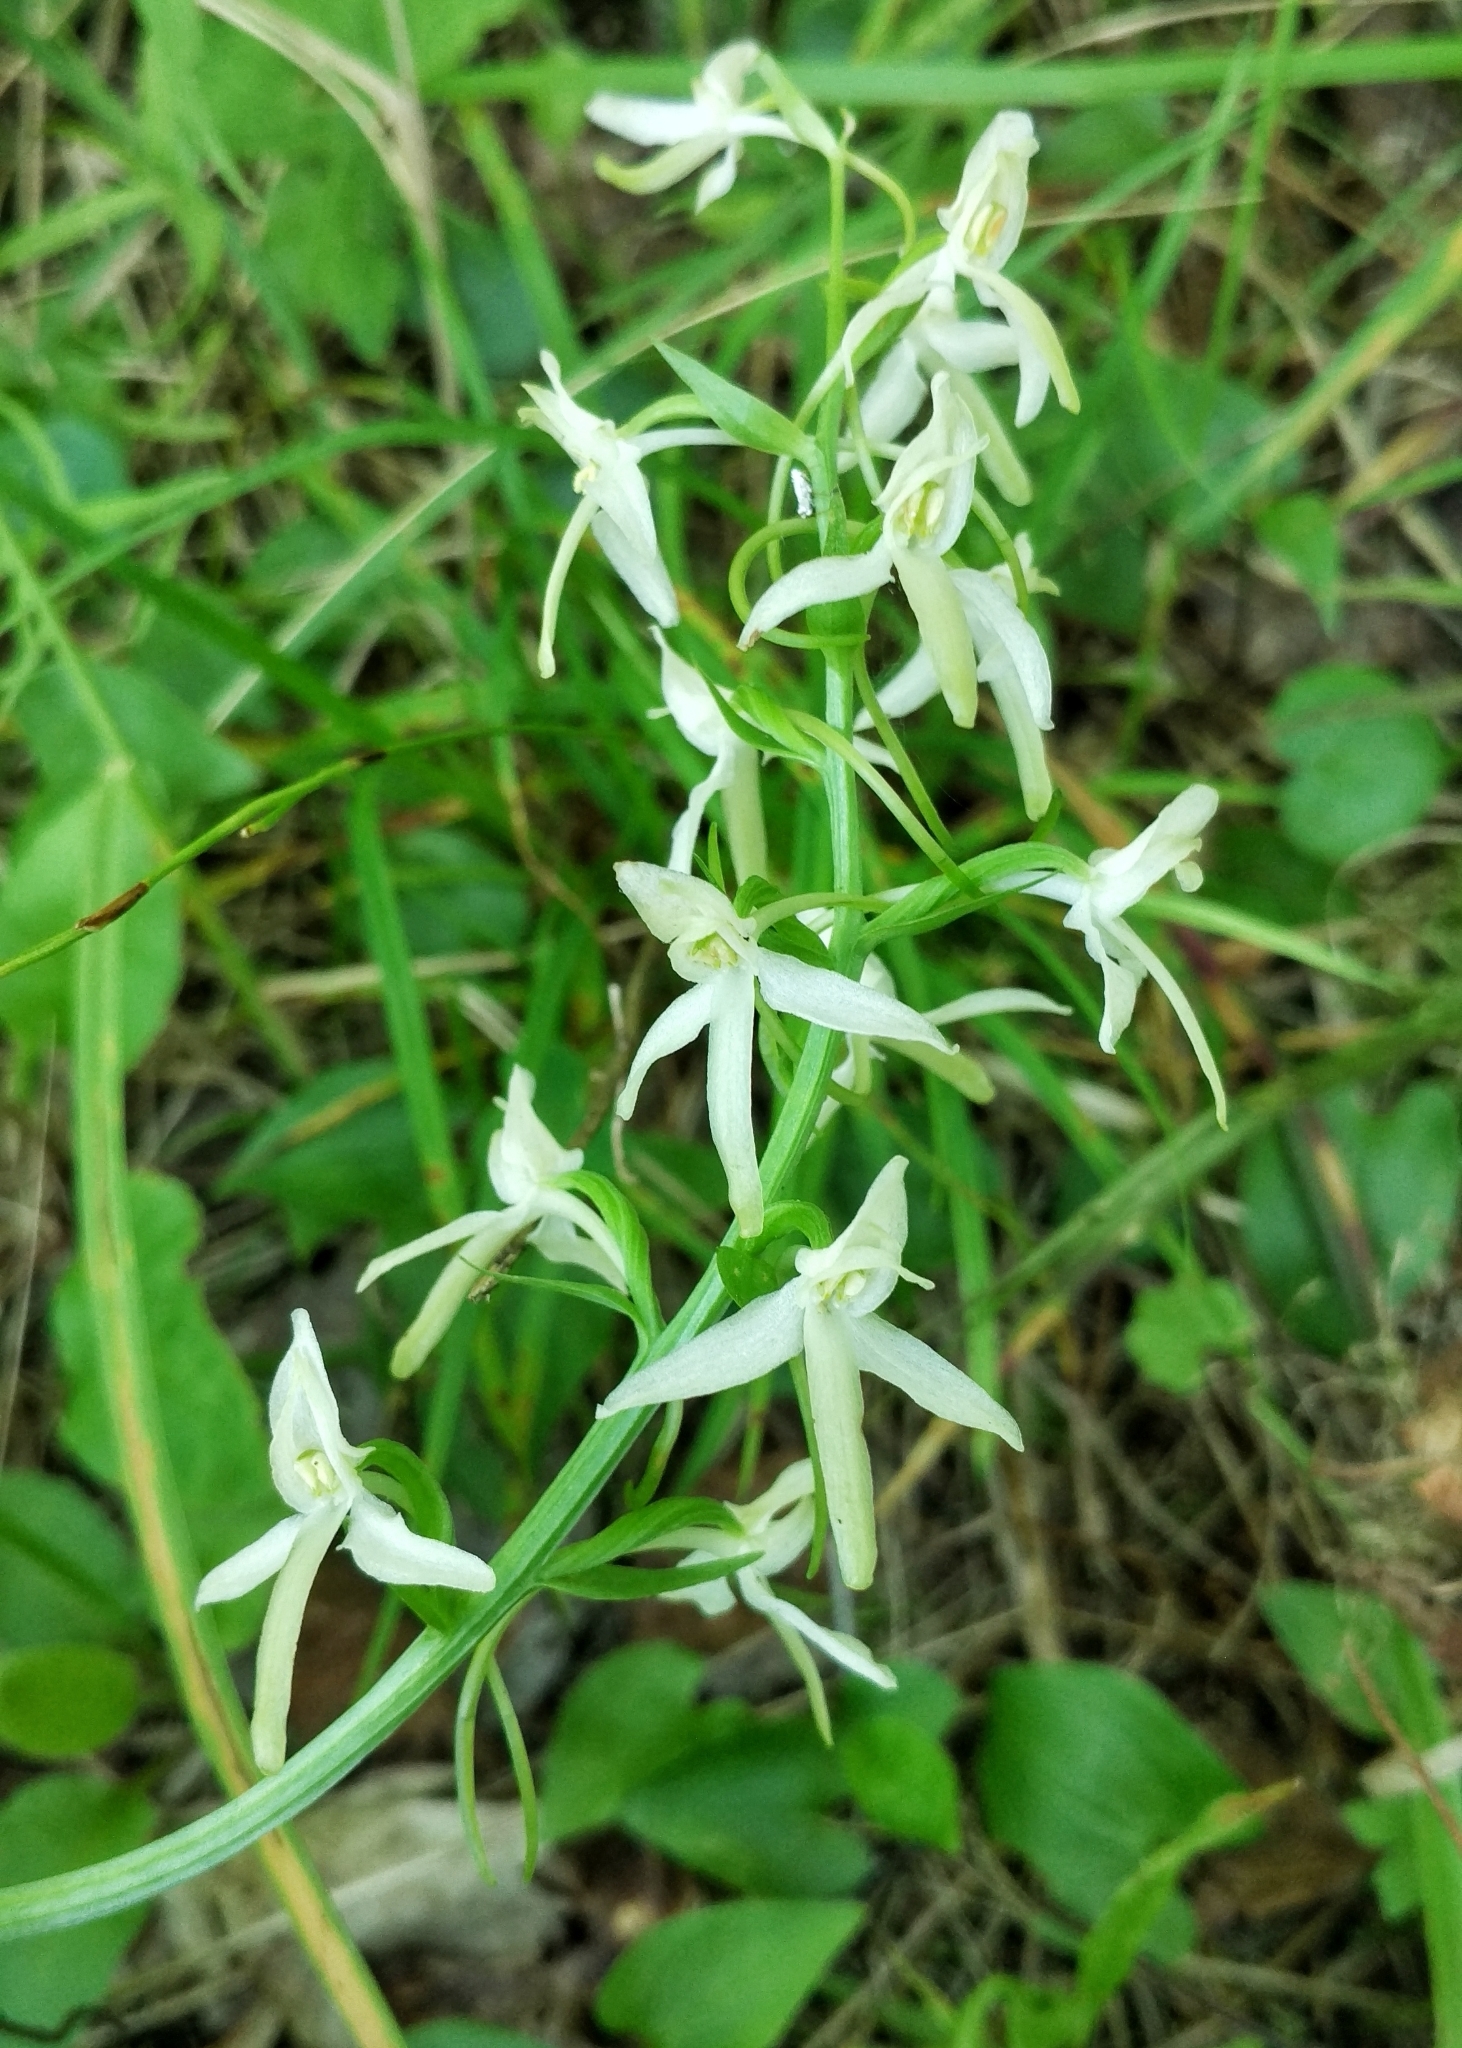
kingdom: Plantae
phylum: Tracheophyta
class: Liliopsida
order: Asparagales
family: Orchidaceae
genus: Platanthera
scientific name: Platanthera bifolia
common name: Lesser butterfly-orchid
